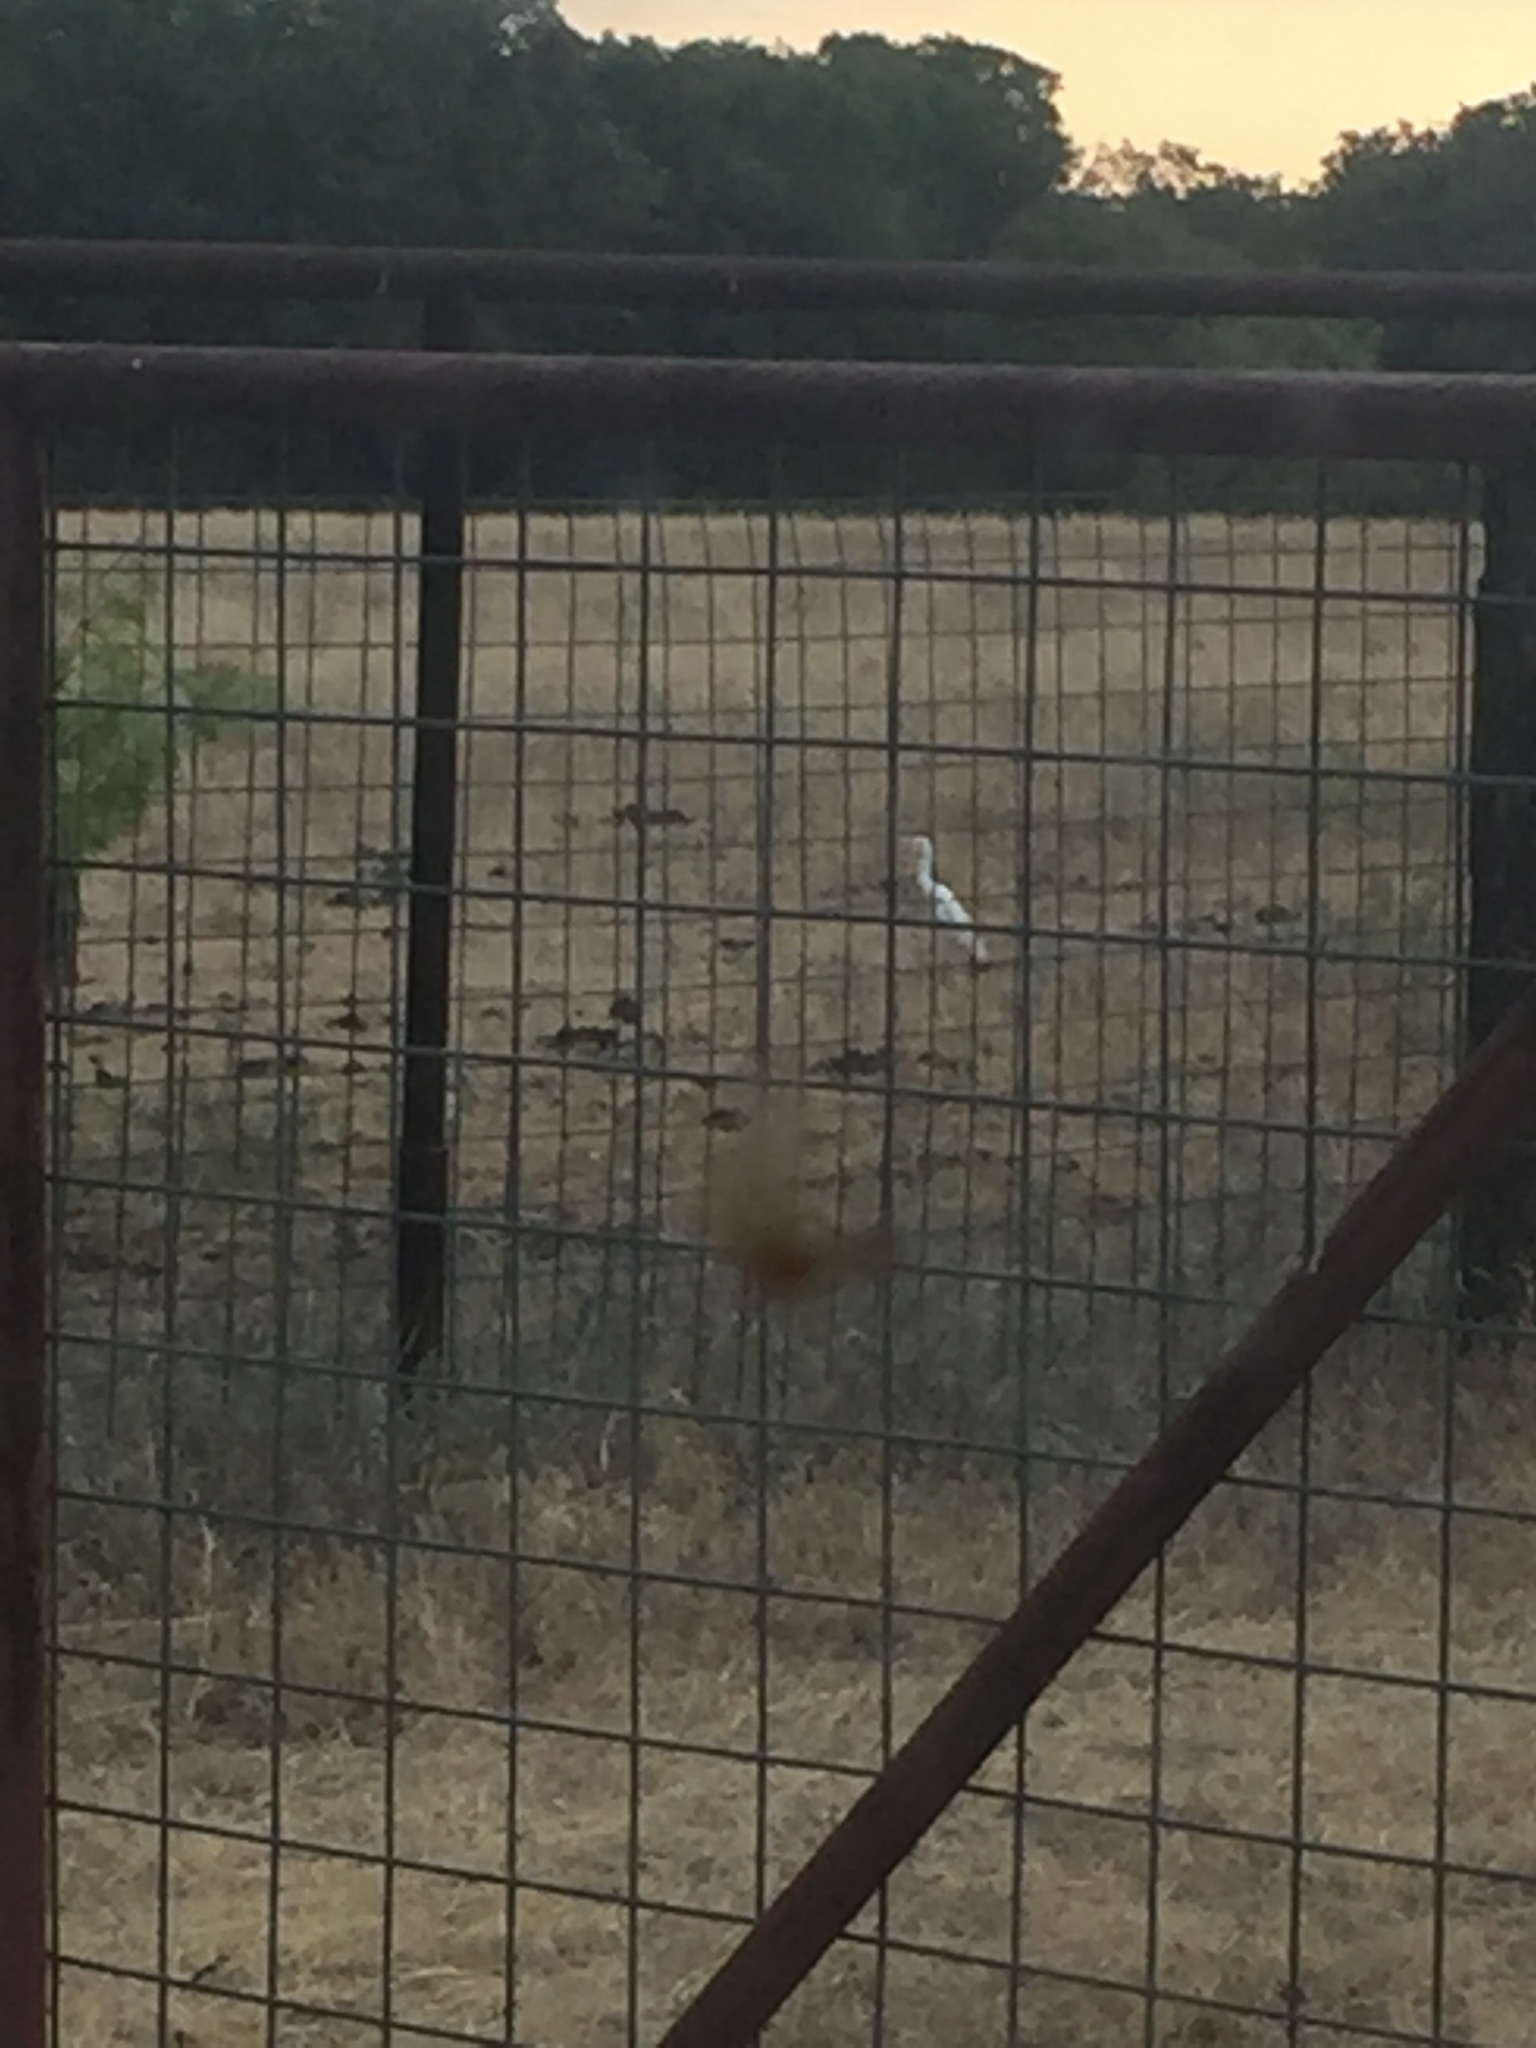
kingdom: Animalia
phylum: Chordata
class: Aves
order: Pelecaniformes
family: Ardeidae
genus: Bubulcus
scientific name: Bubulcus ibis
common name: Cattle egret
